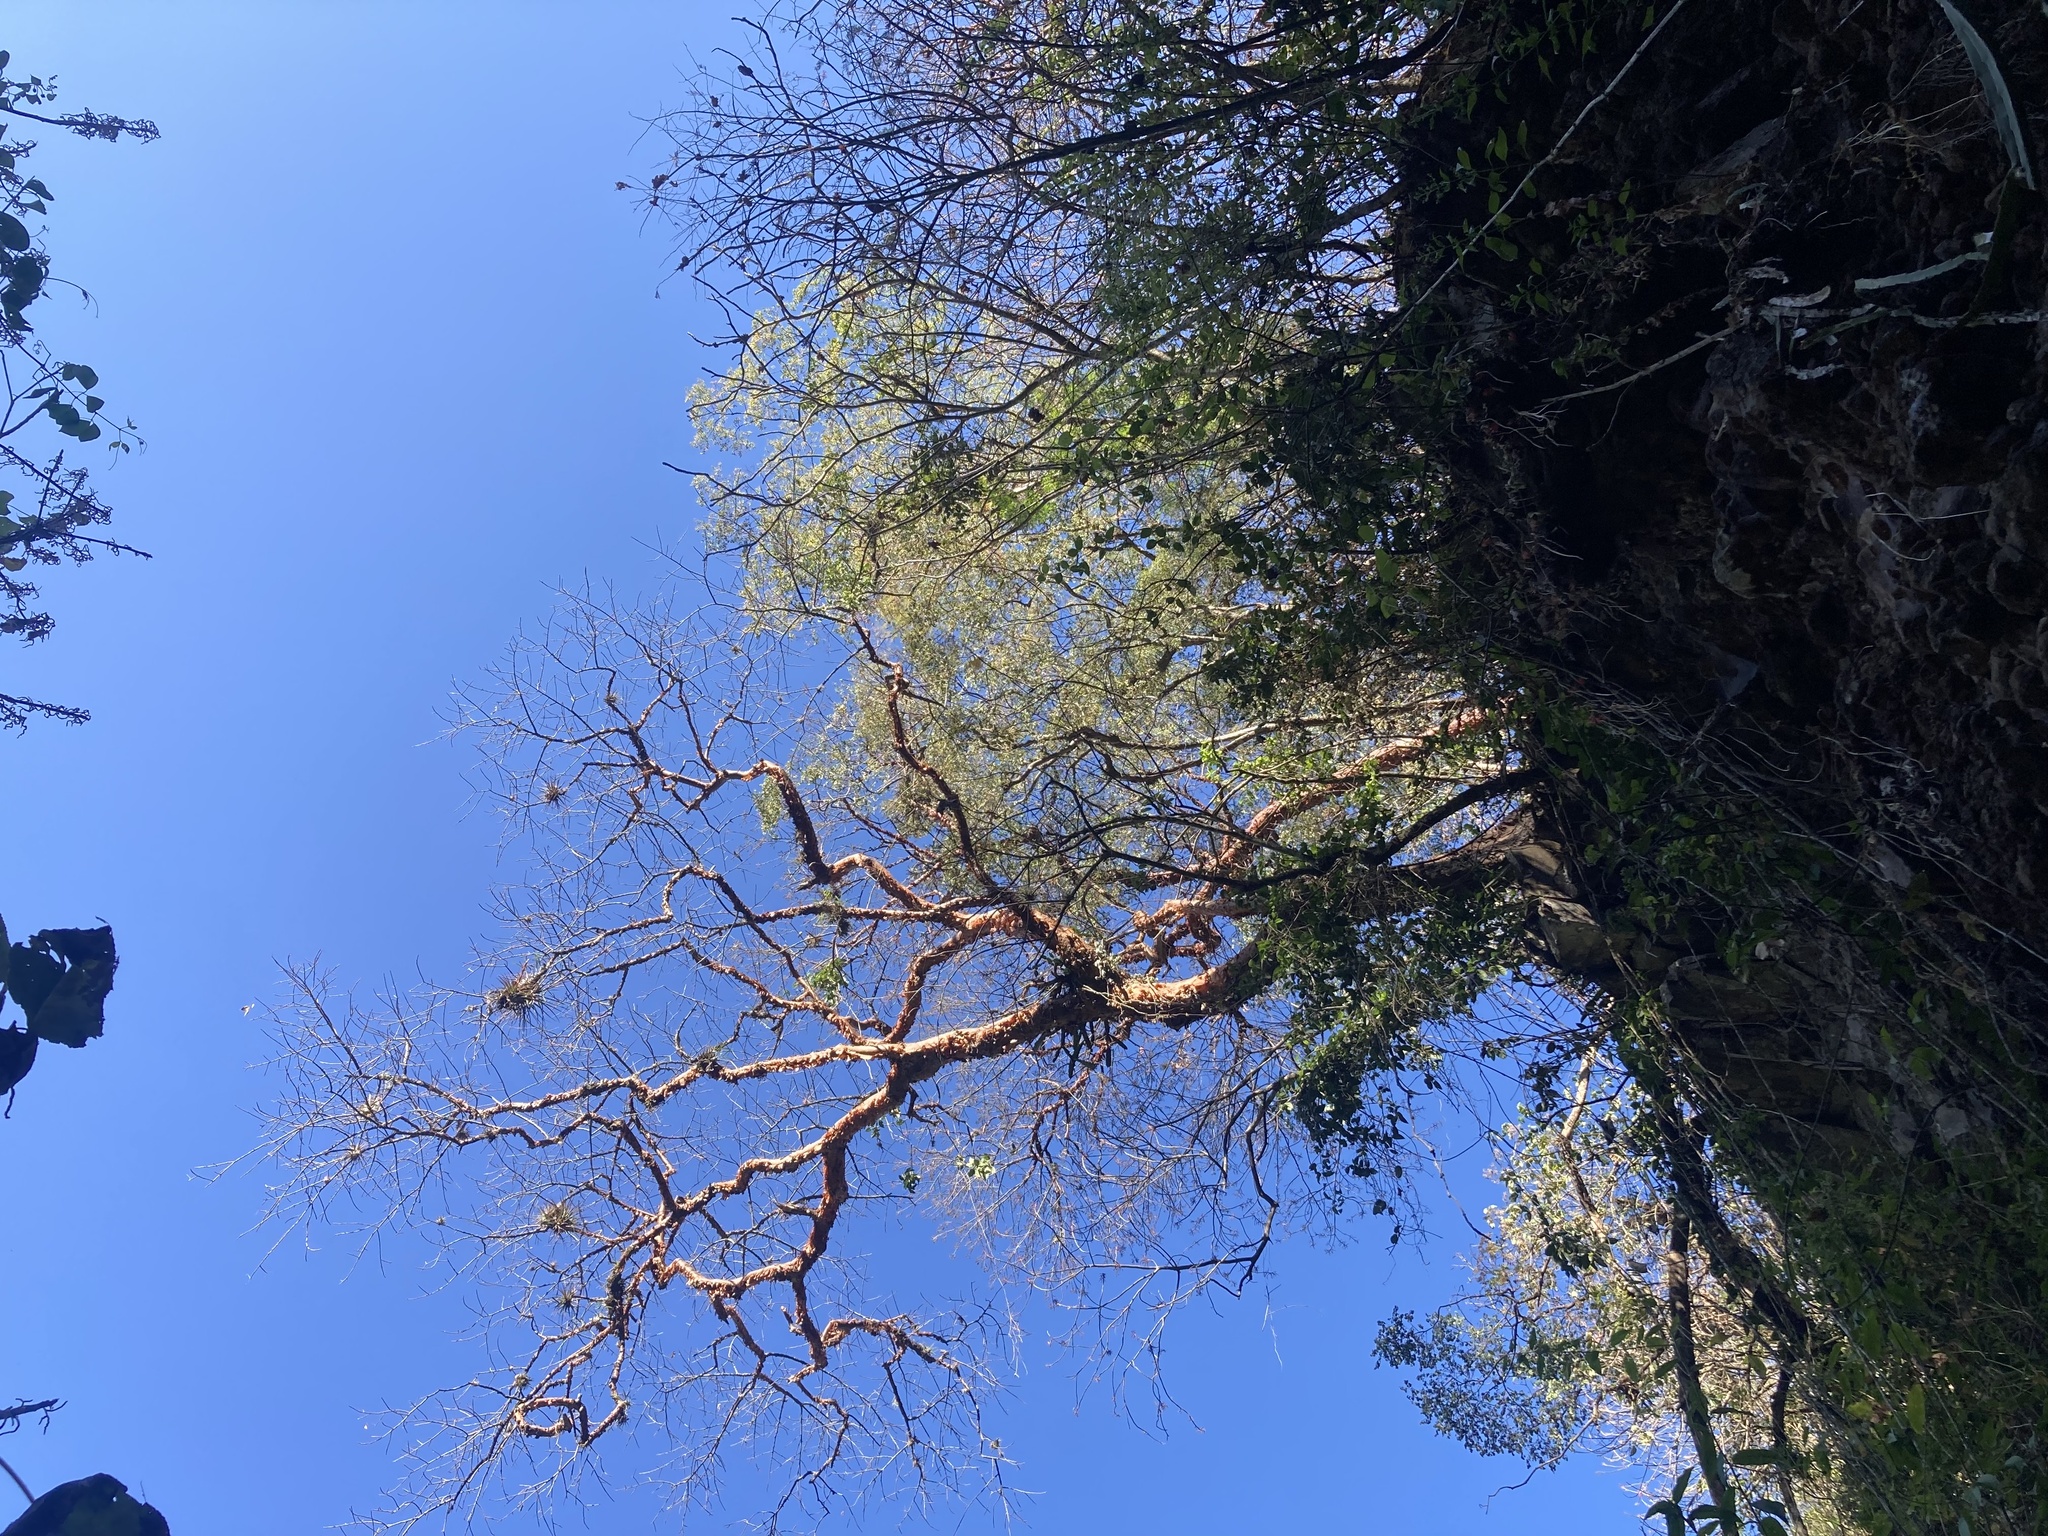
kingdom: Plantae
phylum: Tracheophyta
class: Magnoliopsida
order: Sapindales
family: Burseraceae
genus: Bursera
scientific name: Bursera simaruba
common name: Turpentine tree
